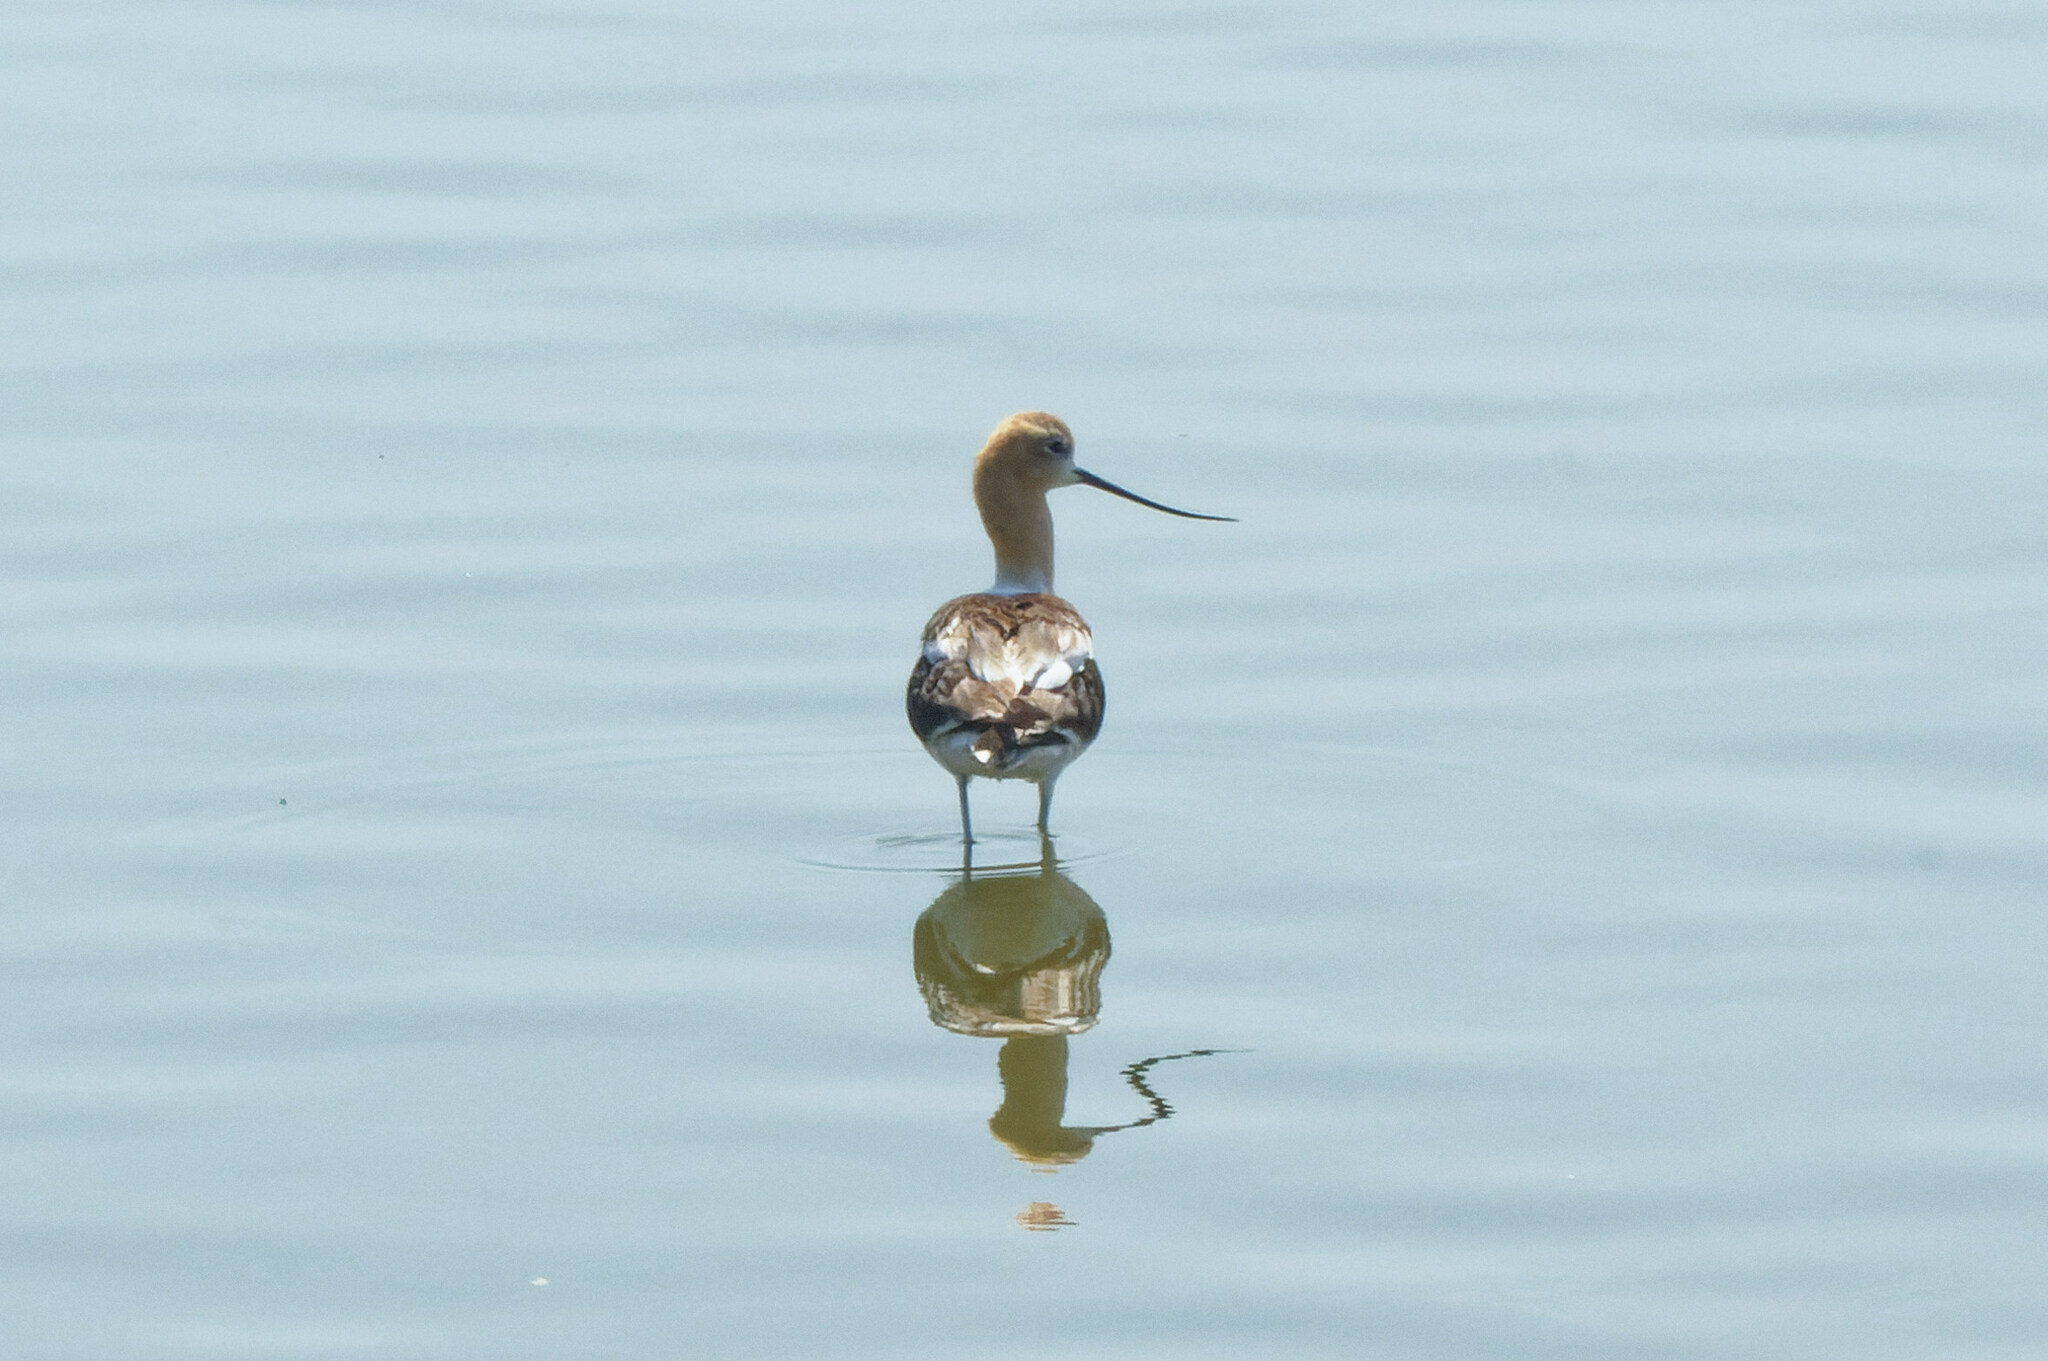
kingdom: Animalia
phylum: Chordata
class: Aves
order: Charadriiformes
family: Recurvirostridae
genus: Recurvirostra
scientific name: Recurvirostra americana
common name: American avocet
